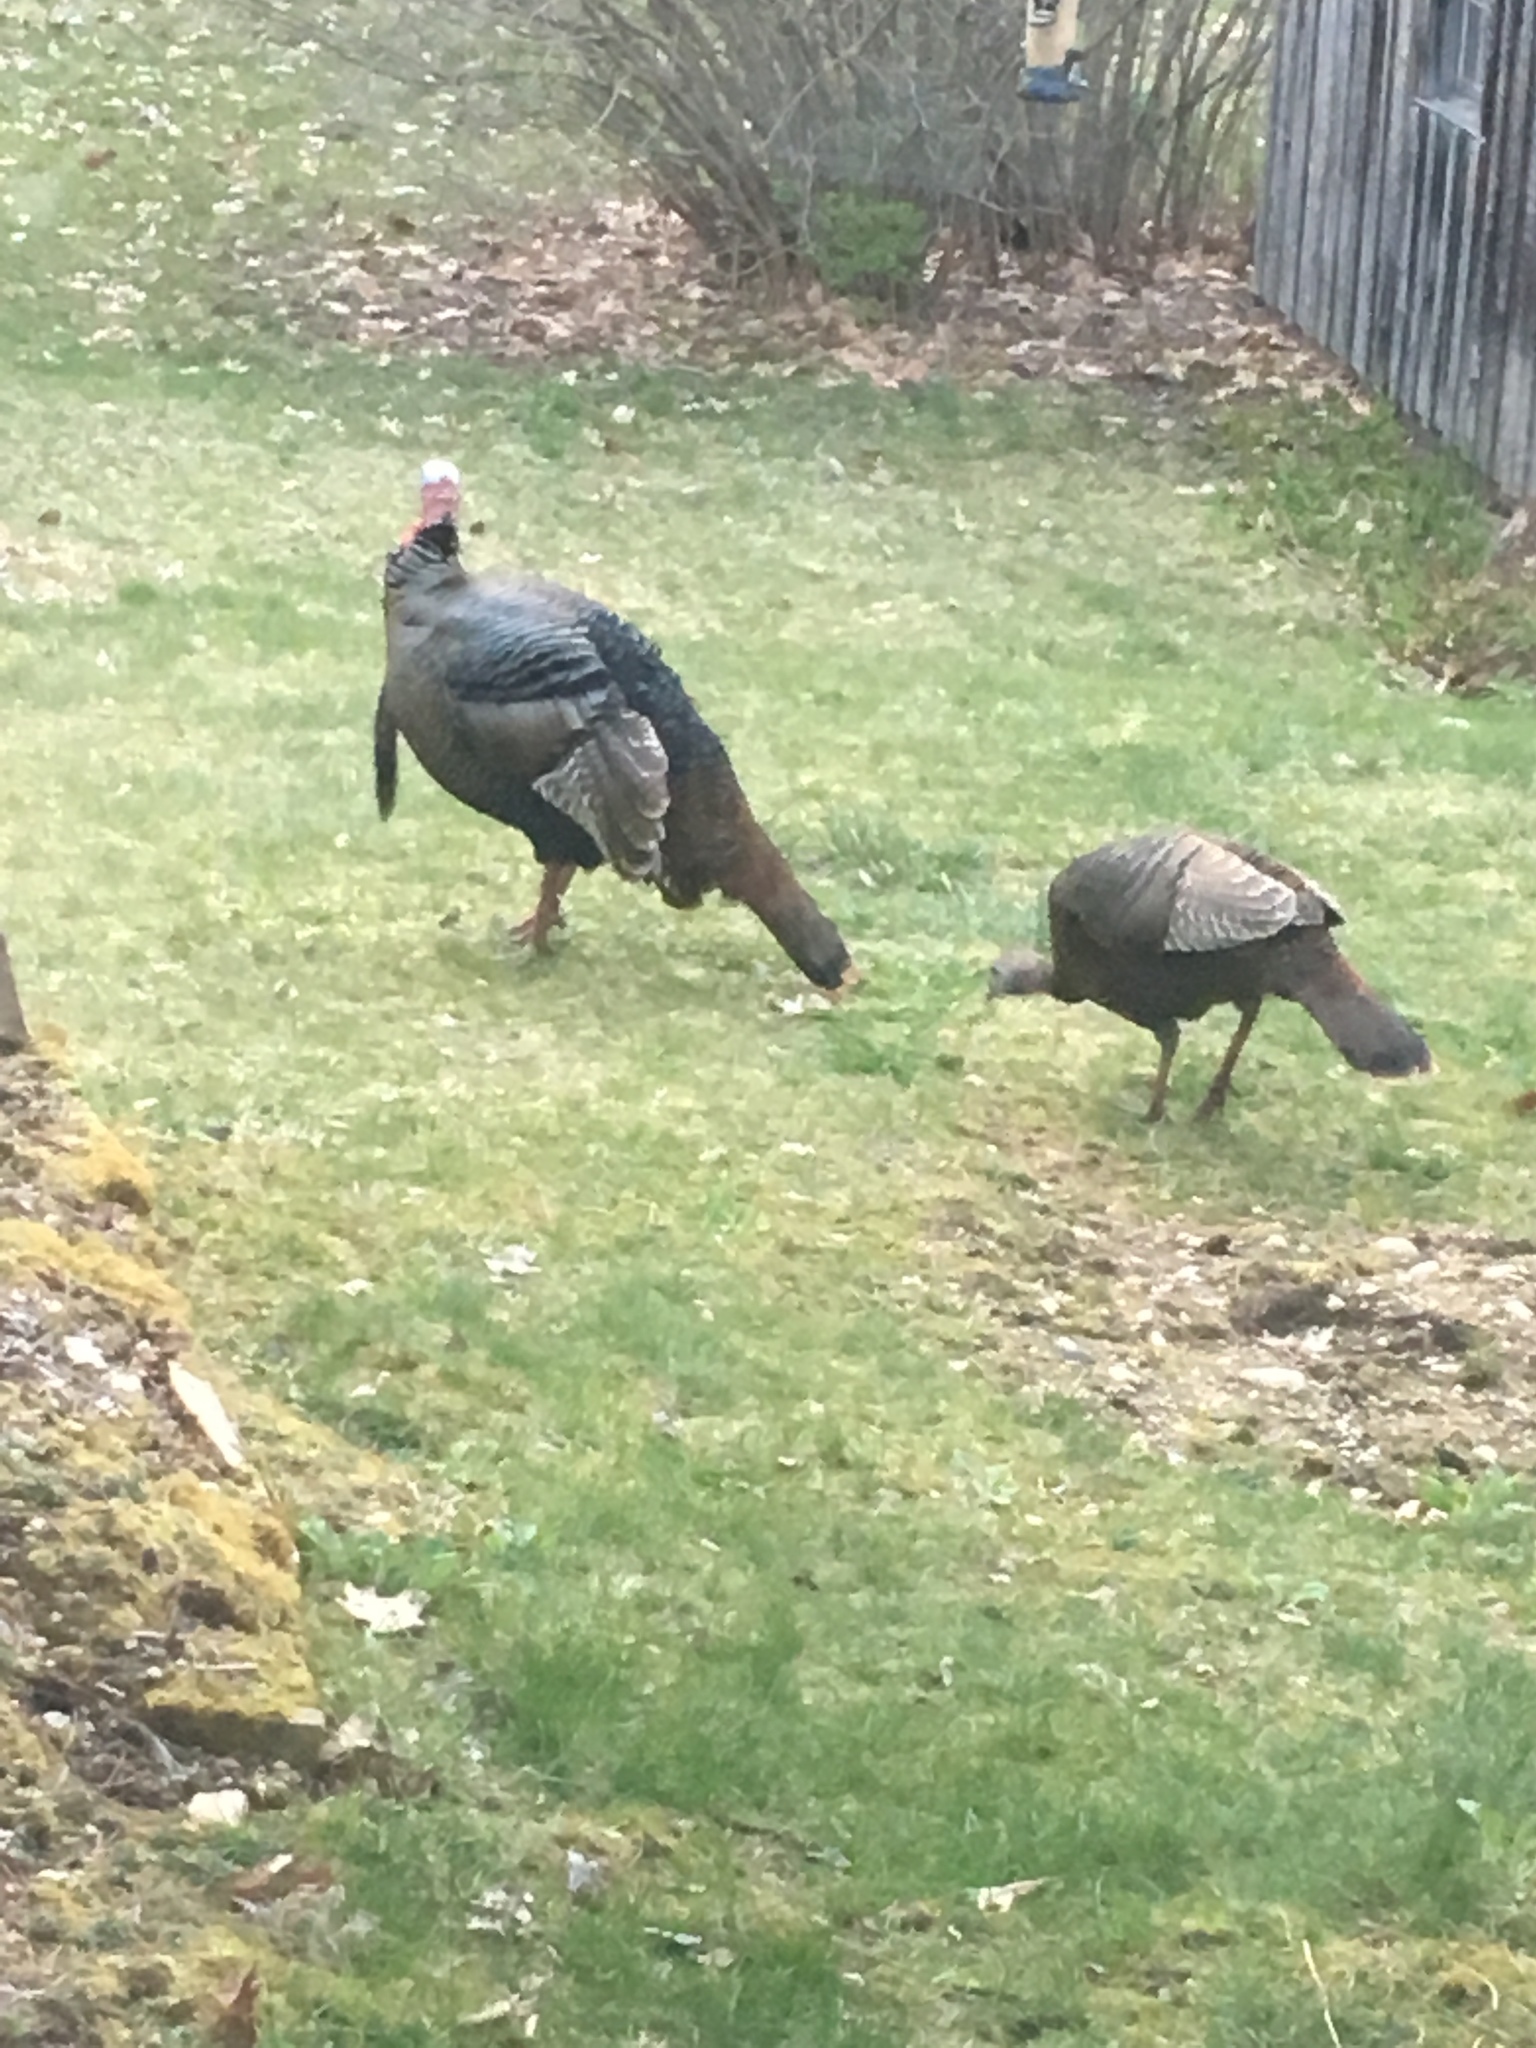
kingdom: Animalia
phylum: Chordata
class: Aves
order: Galliformes
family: Phasianidae
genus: Meleagris
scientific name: Meleagris gallopavo
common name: Wild turkey
